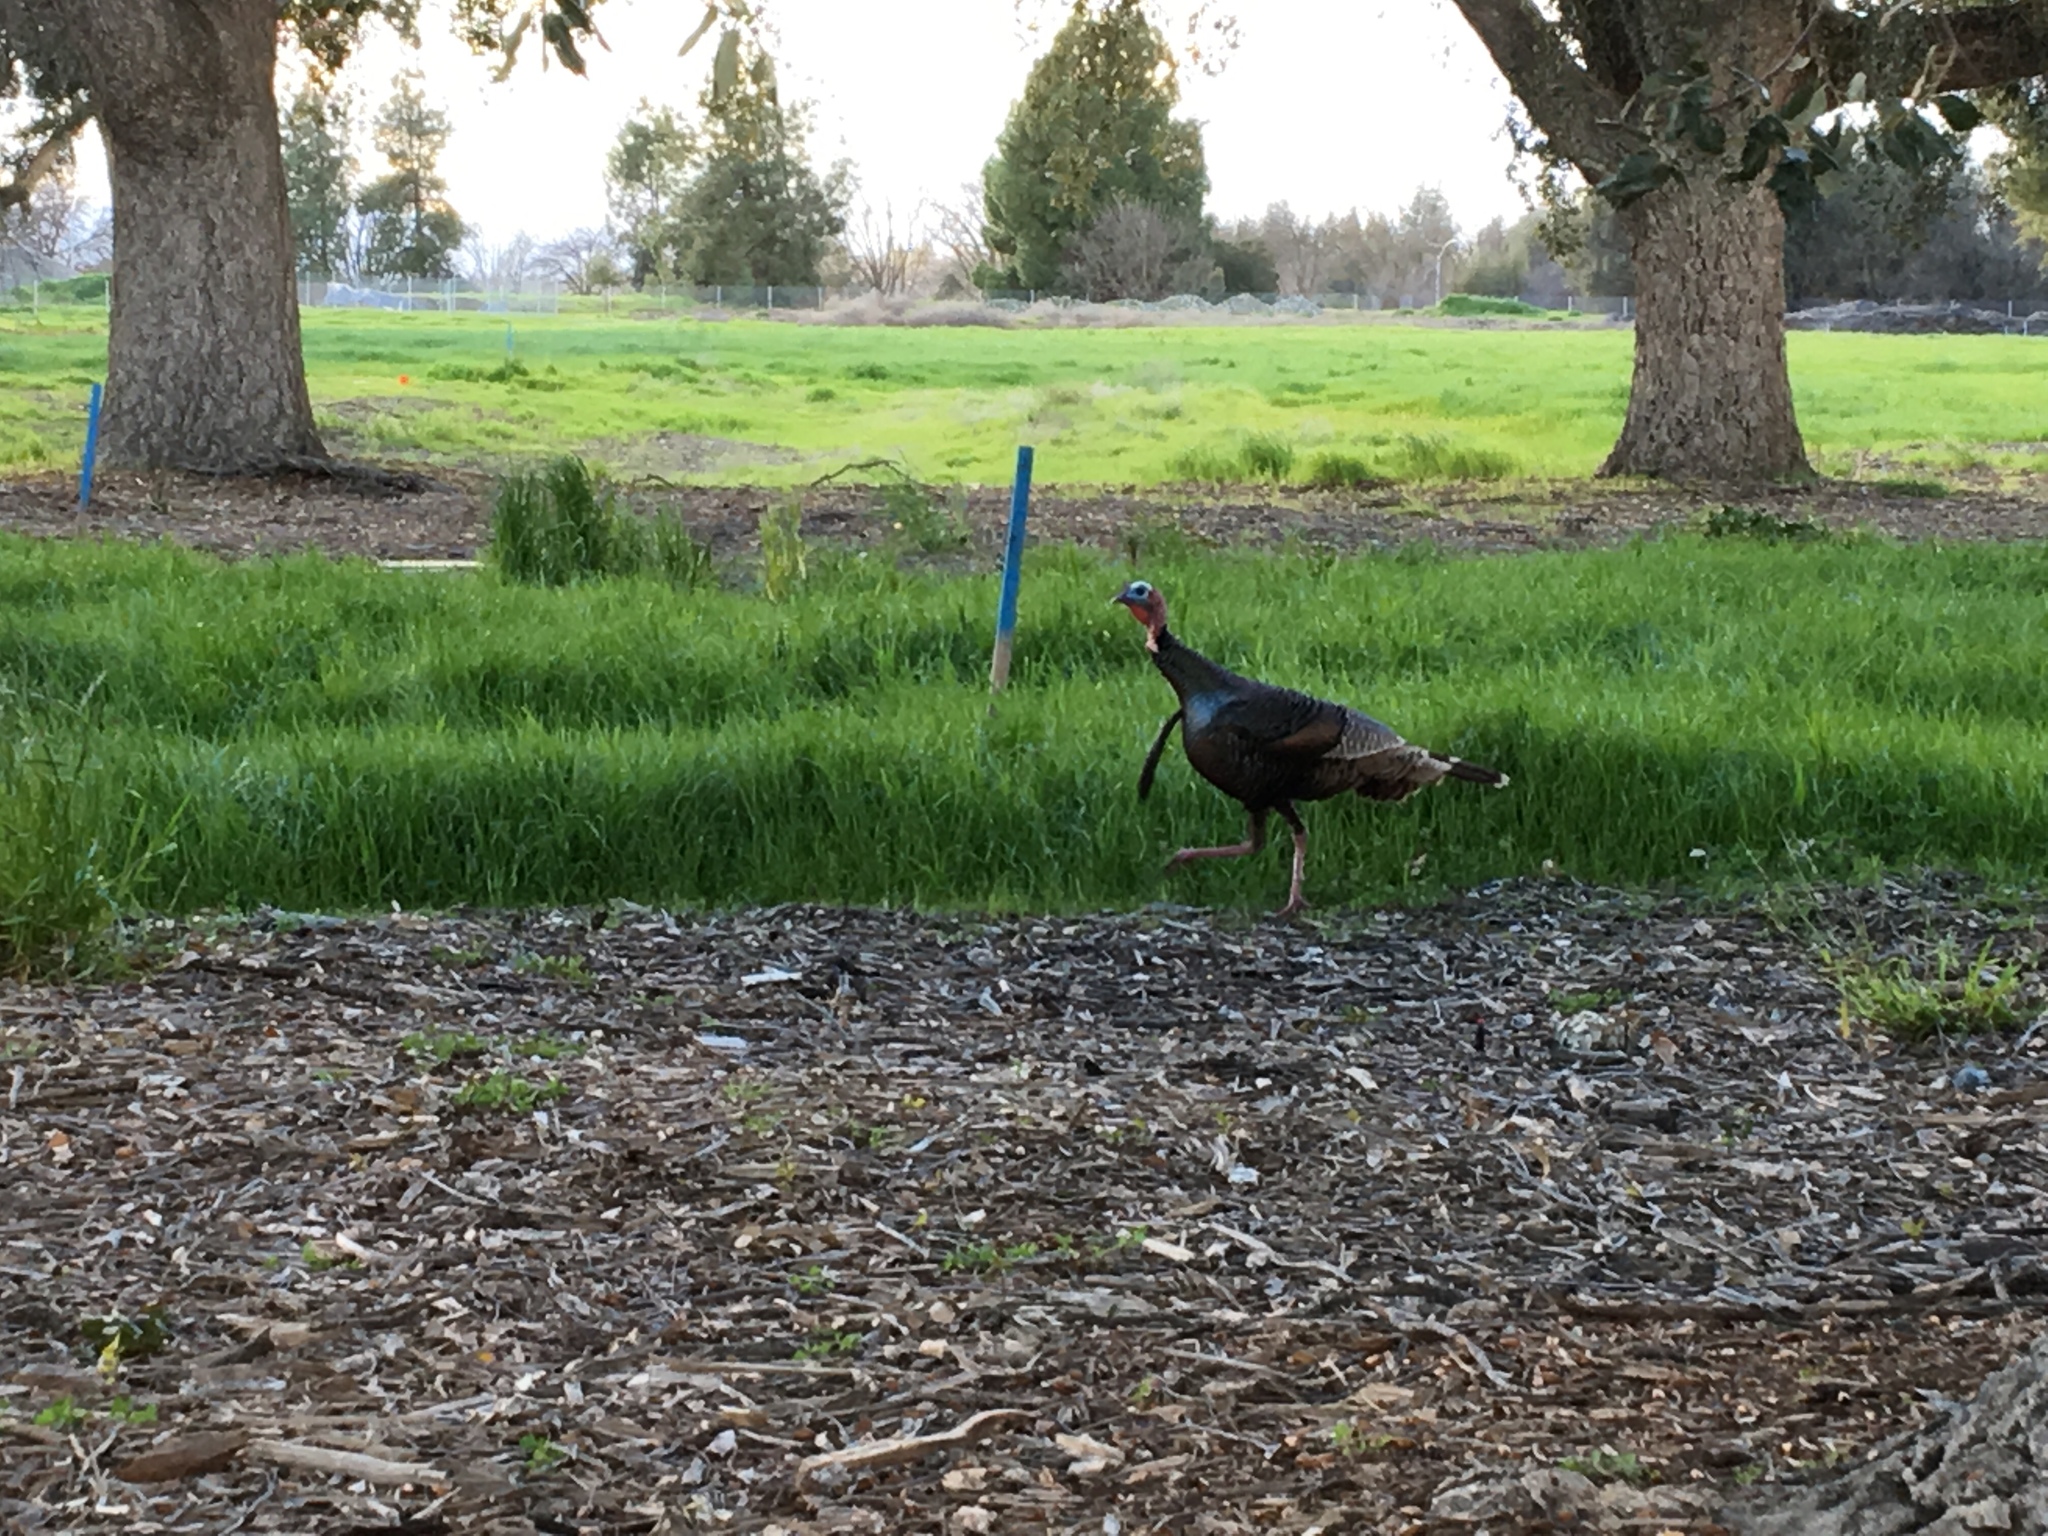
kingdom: Animalia
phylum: Chordata
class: Aves
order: Galliformes
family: Phasianidae
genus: Meleagris
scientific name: Meleagris gallopavo
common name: Wild turkey
